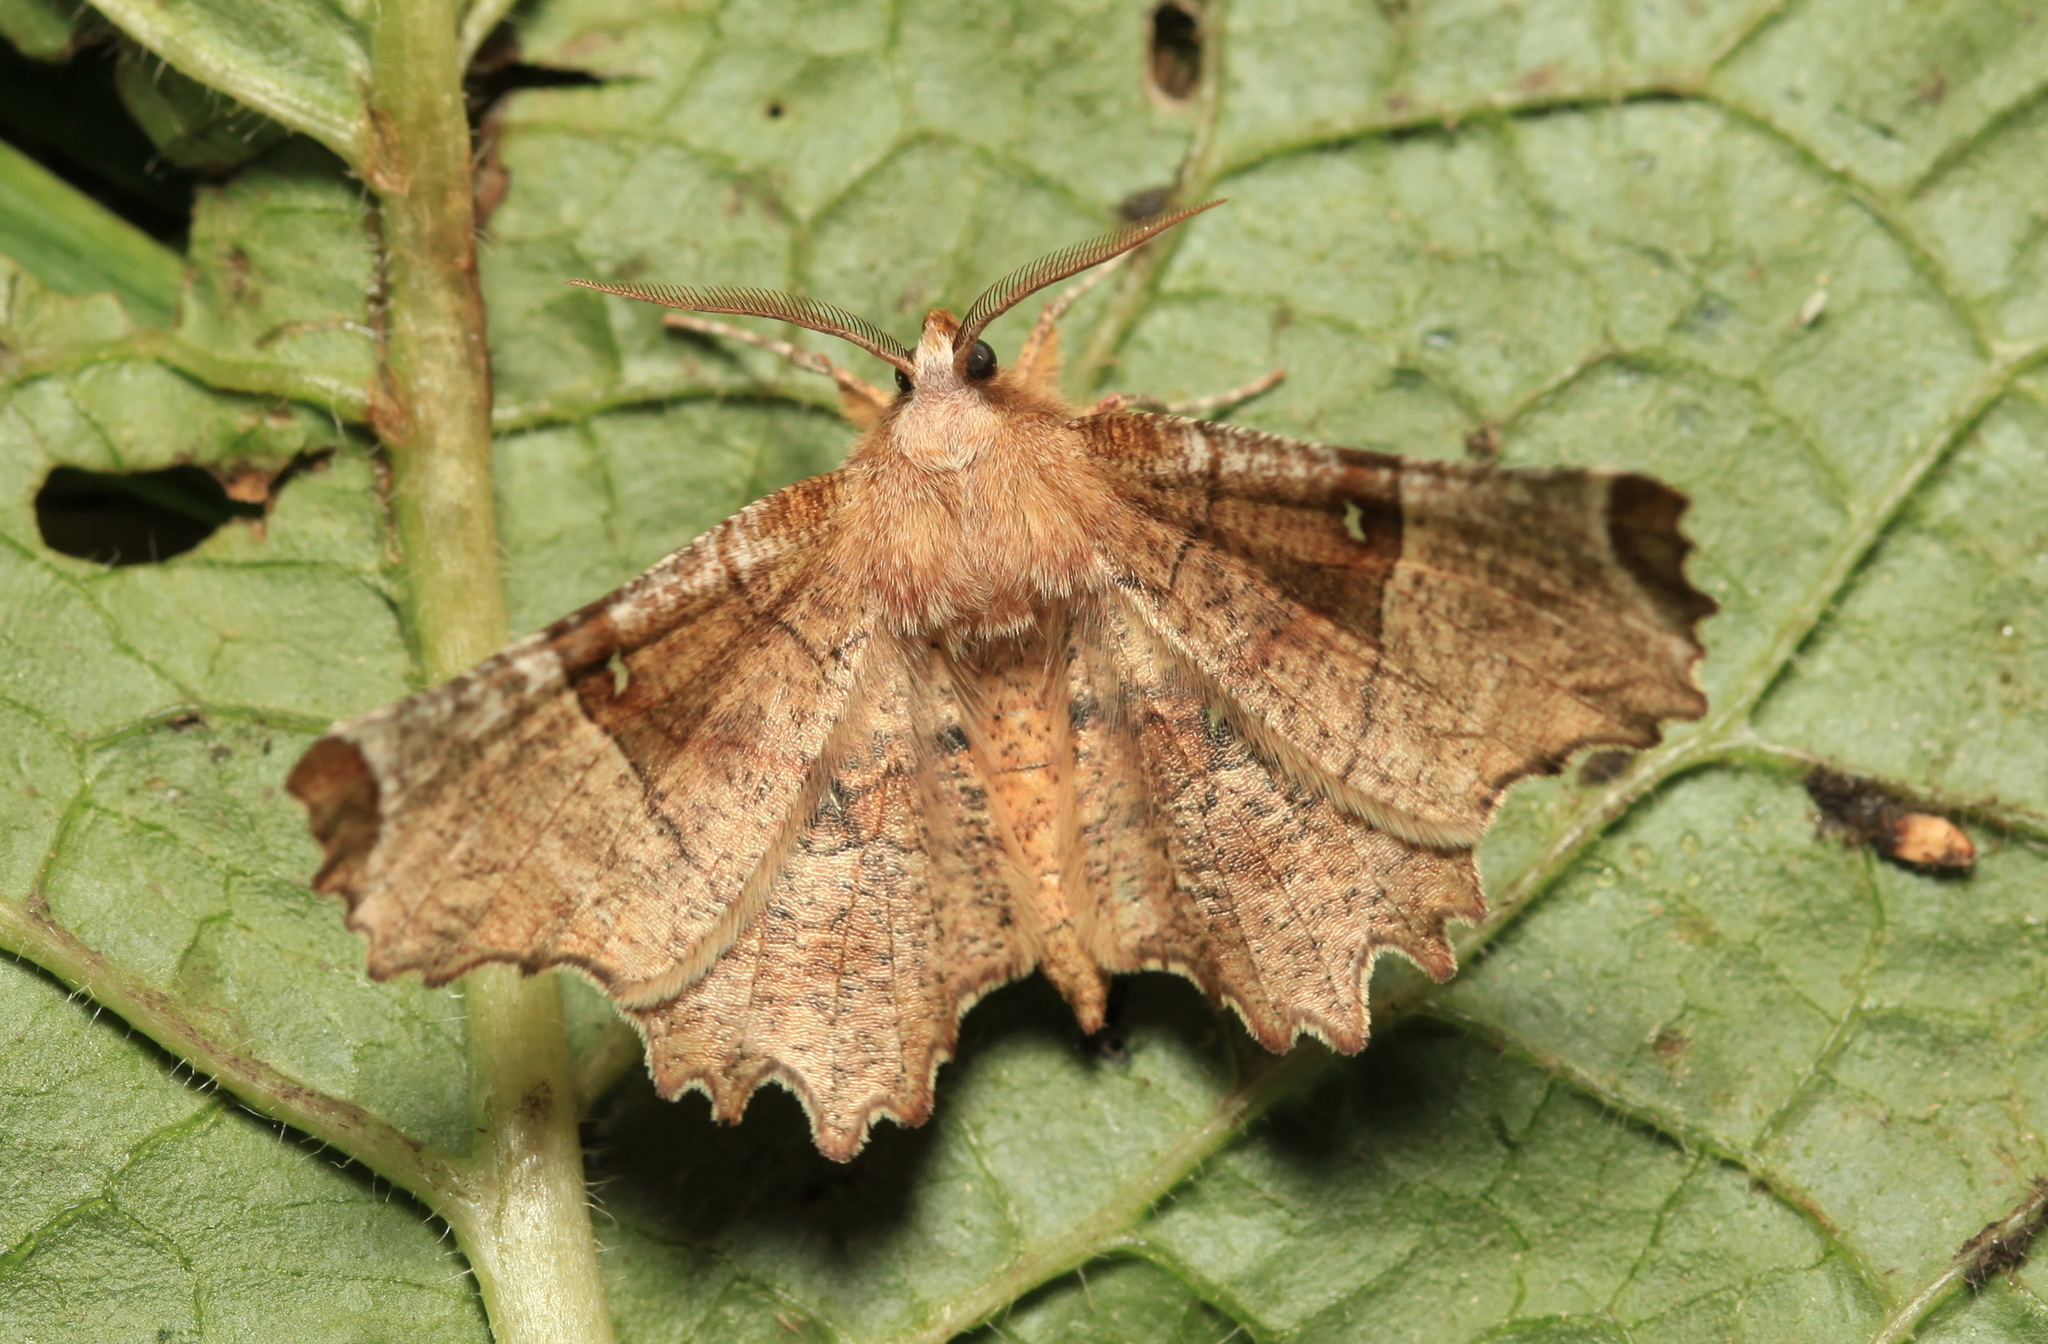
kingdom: Animalia
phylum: Arthropoda
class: Insecta
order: Lepidoptera
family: Geometridae
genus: Selenia
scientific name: Selenia lunularia
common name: Lunar thorn
